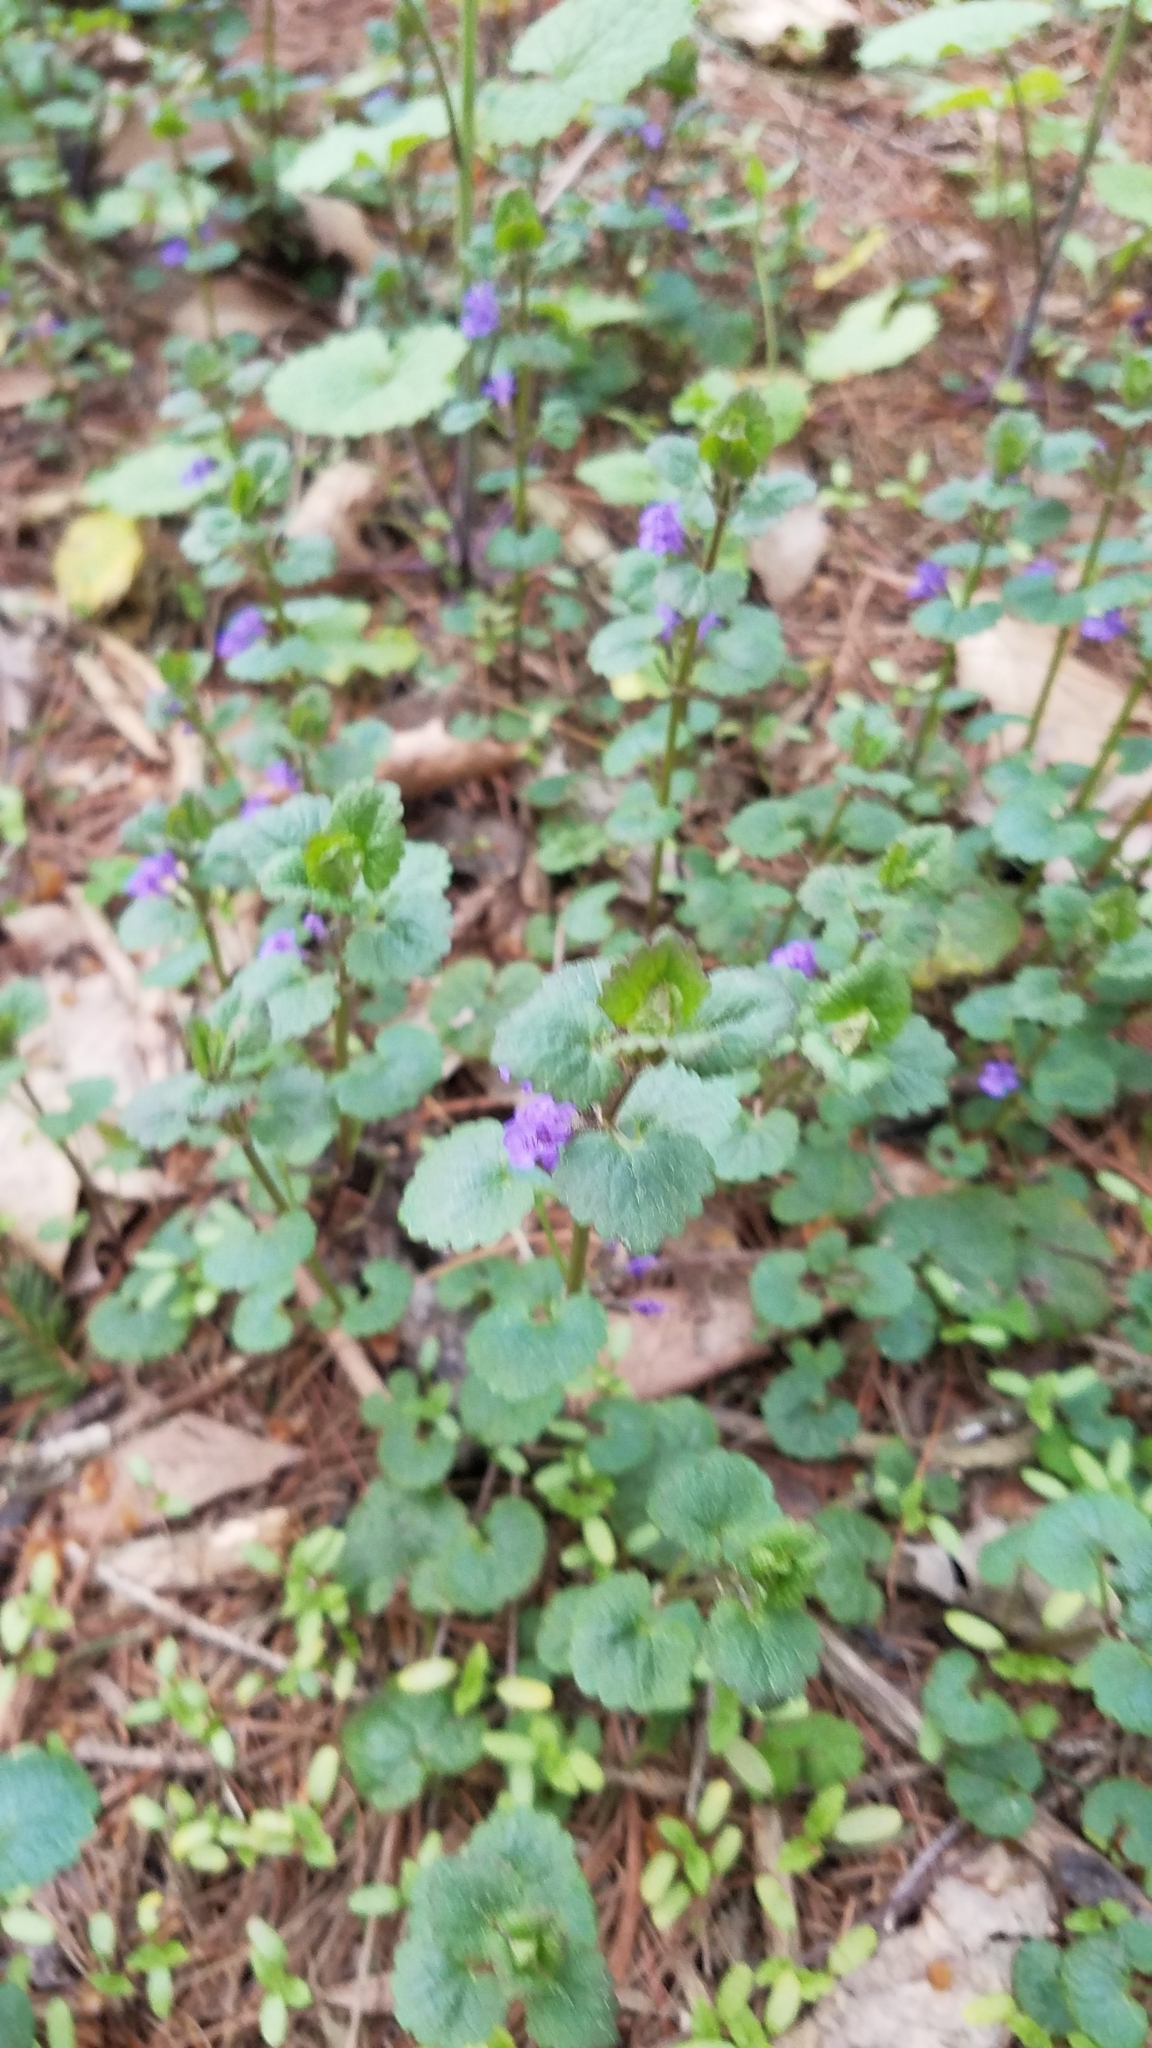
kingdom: Plantae
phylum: Tracheophyta
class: Magnoliopsida
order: Lamiales
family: Lamiaceae
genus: Glechoma
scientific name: Glechoma hederacea
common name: Ground ivy
